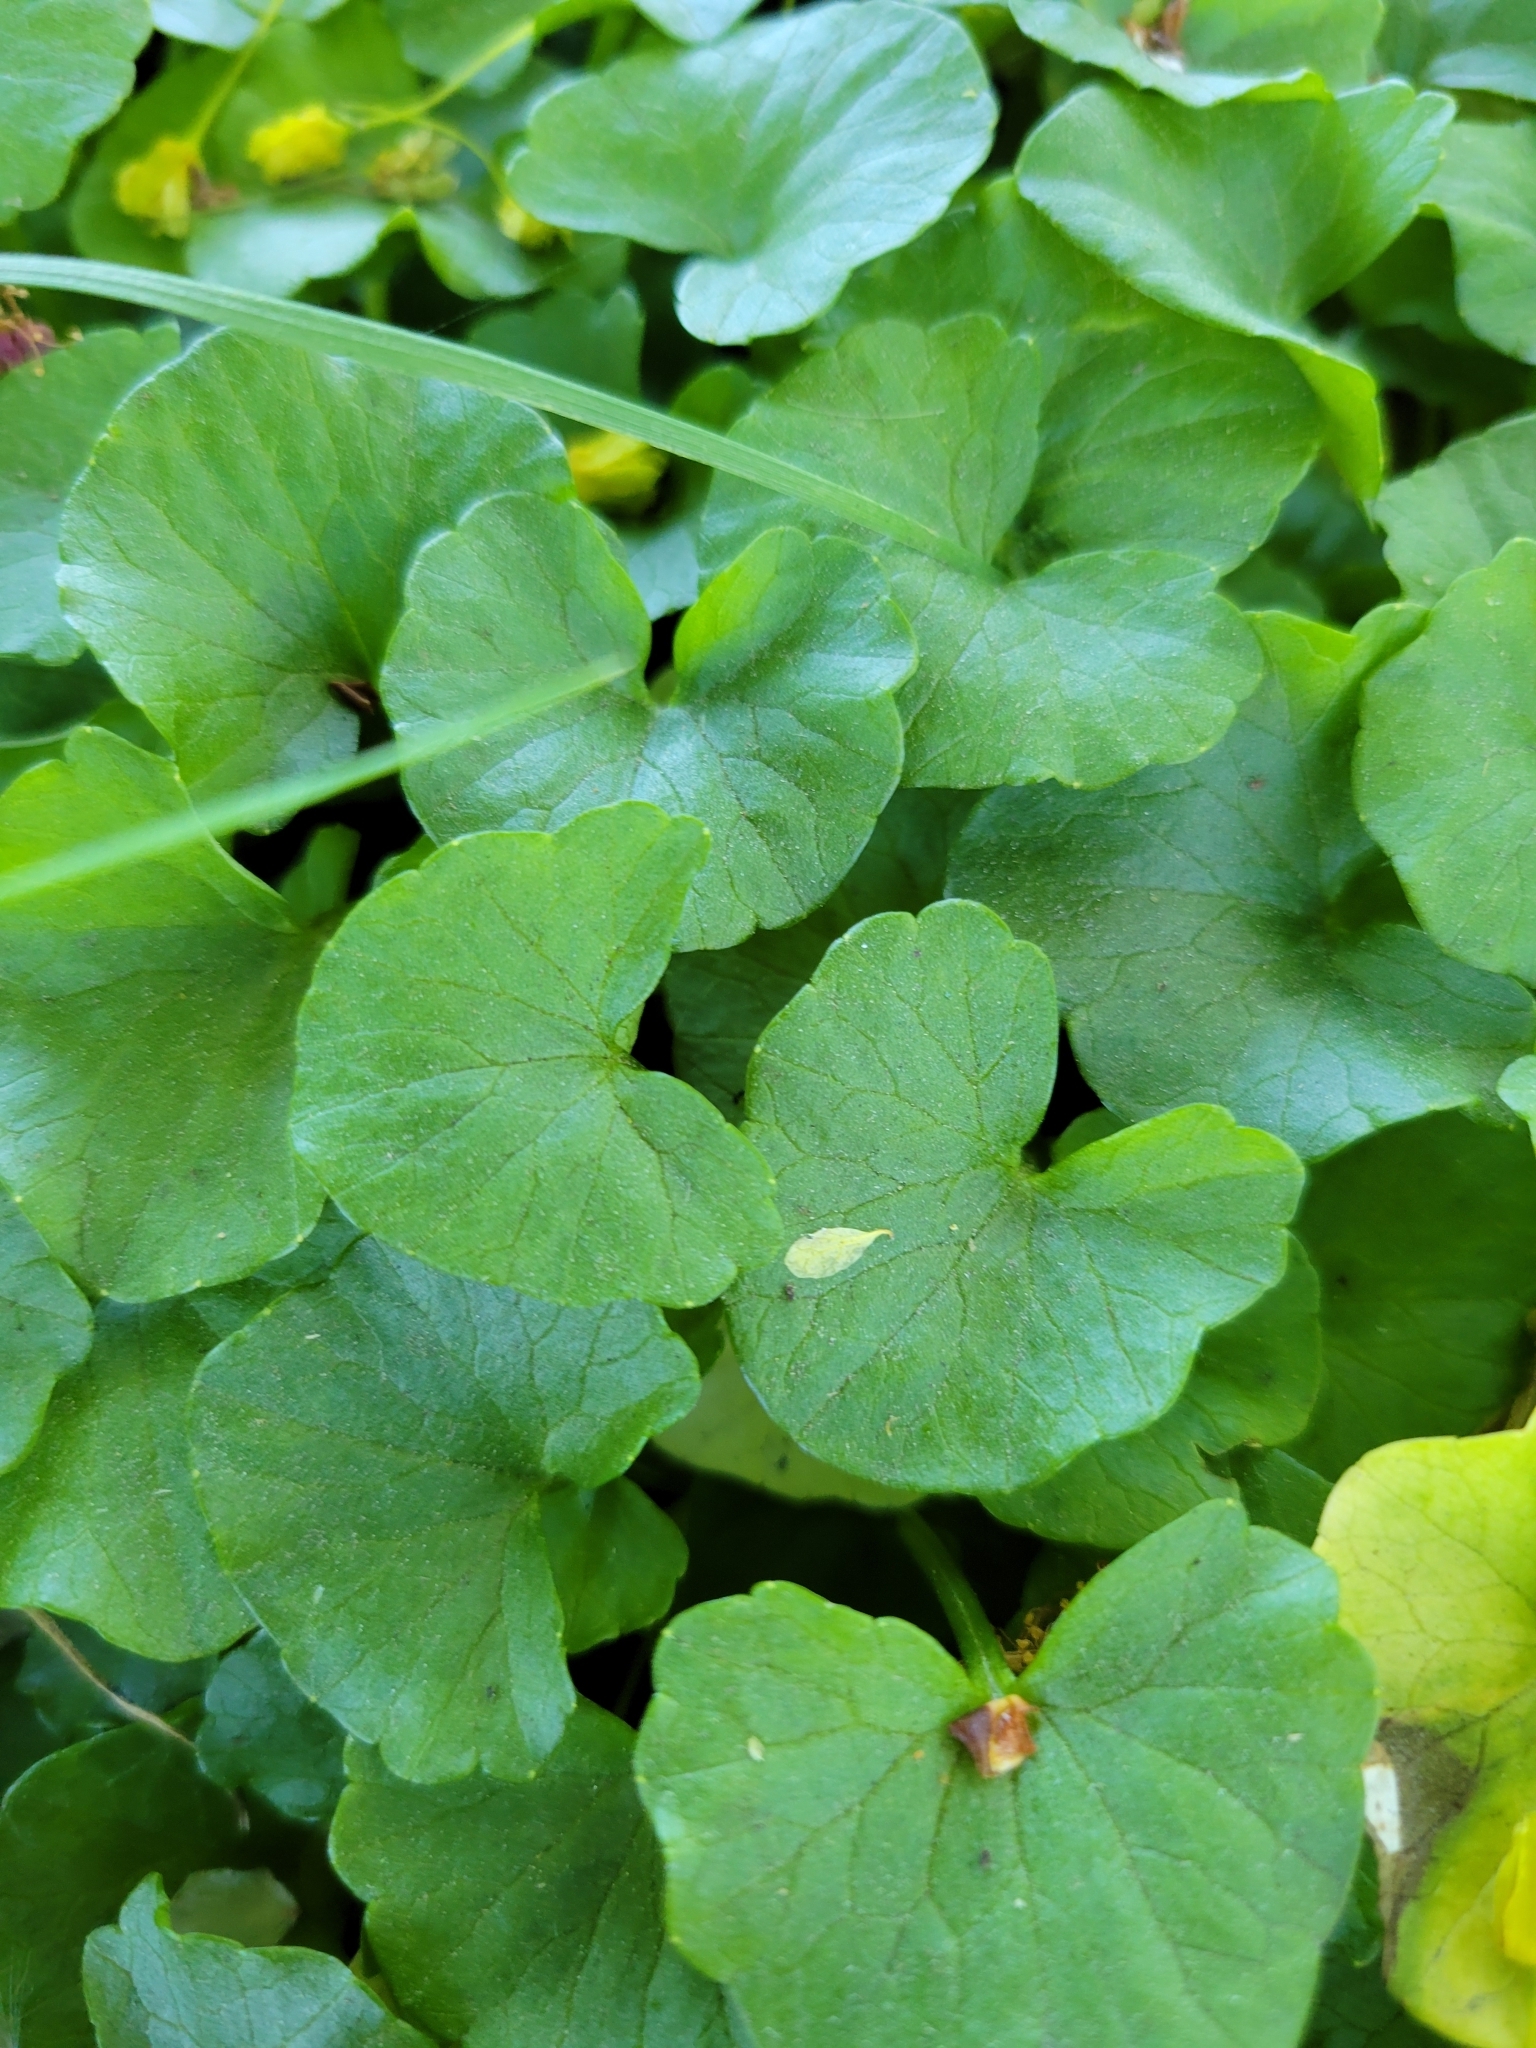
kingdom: Plantae
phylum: Tracheophyta
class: Magnoliopsida
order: Ranunculales
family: Ranunculaceae
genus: Ficaria
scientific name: Ficaria verna
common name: Lesser celandine
